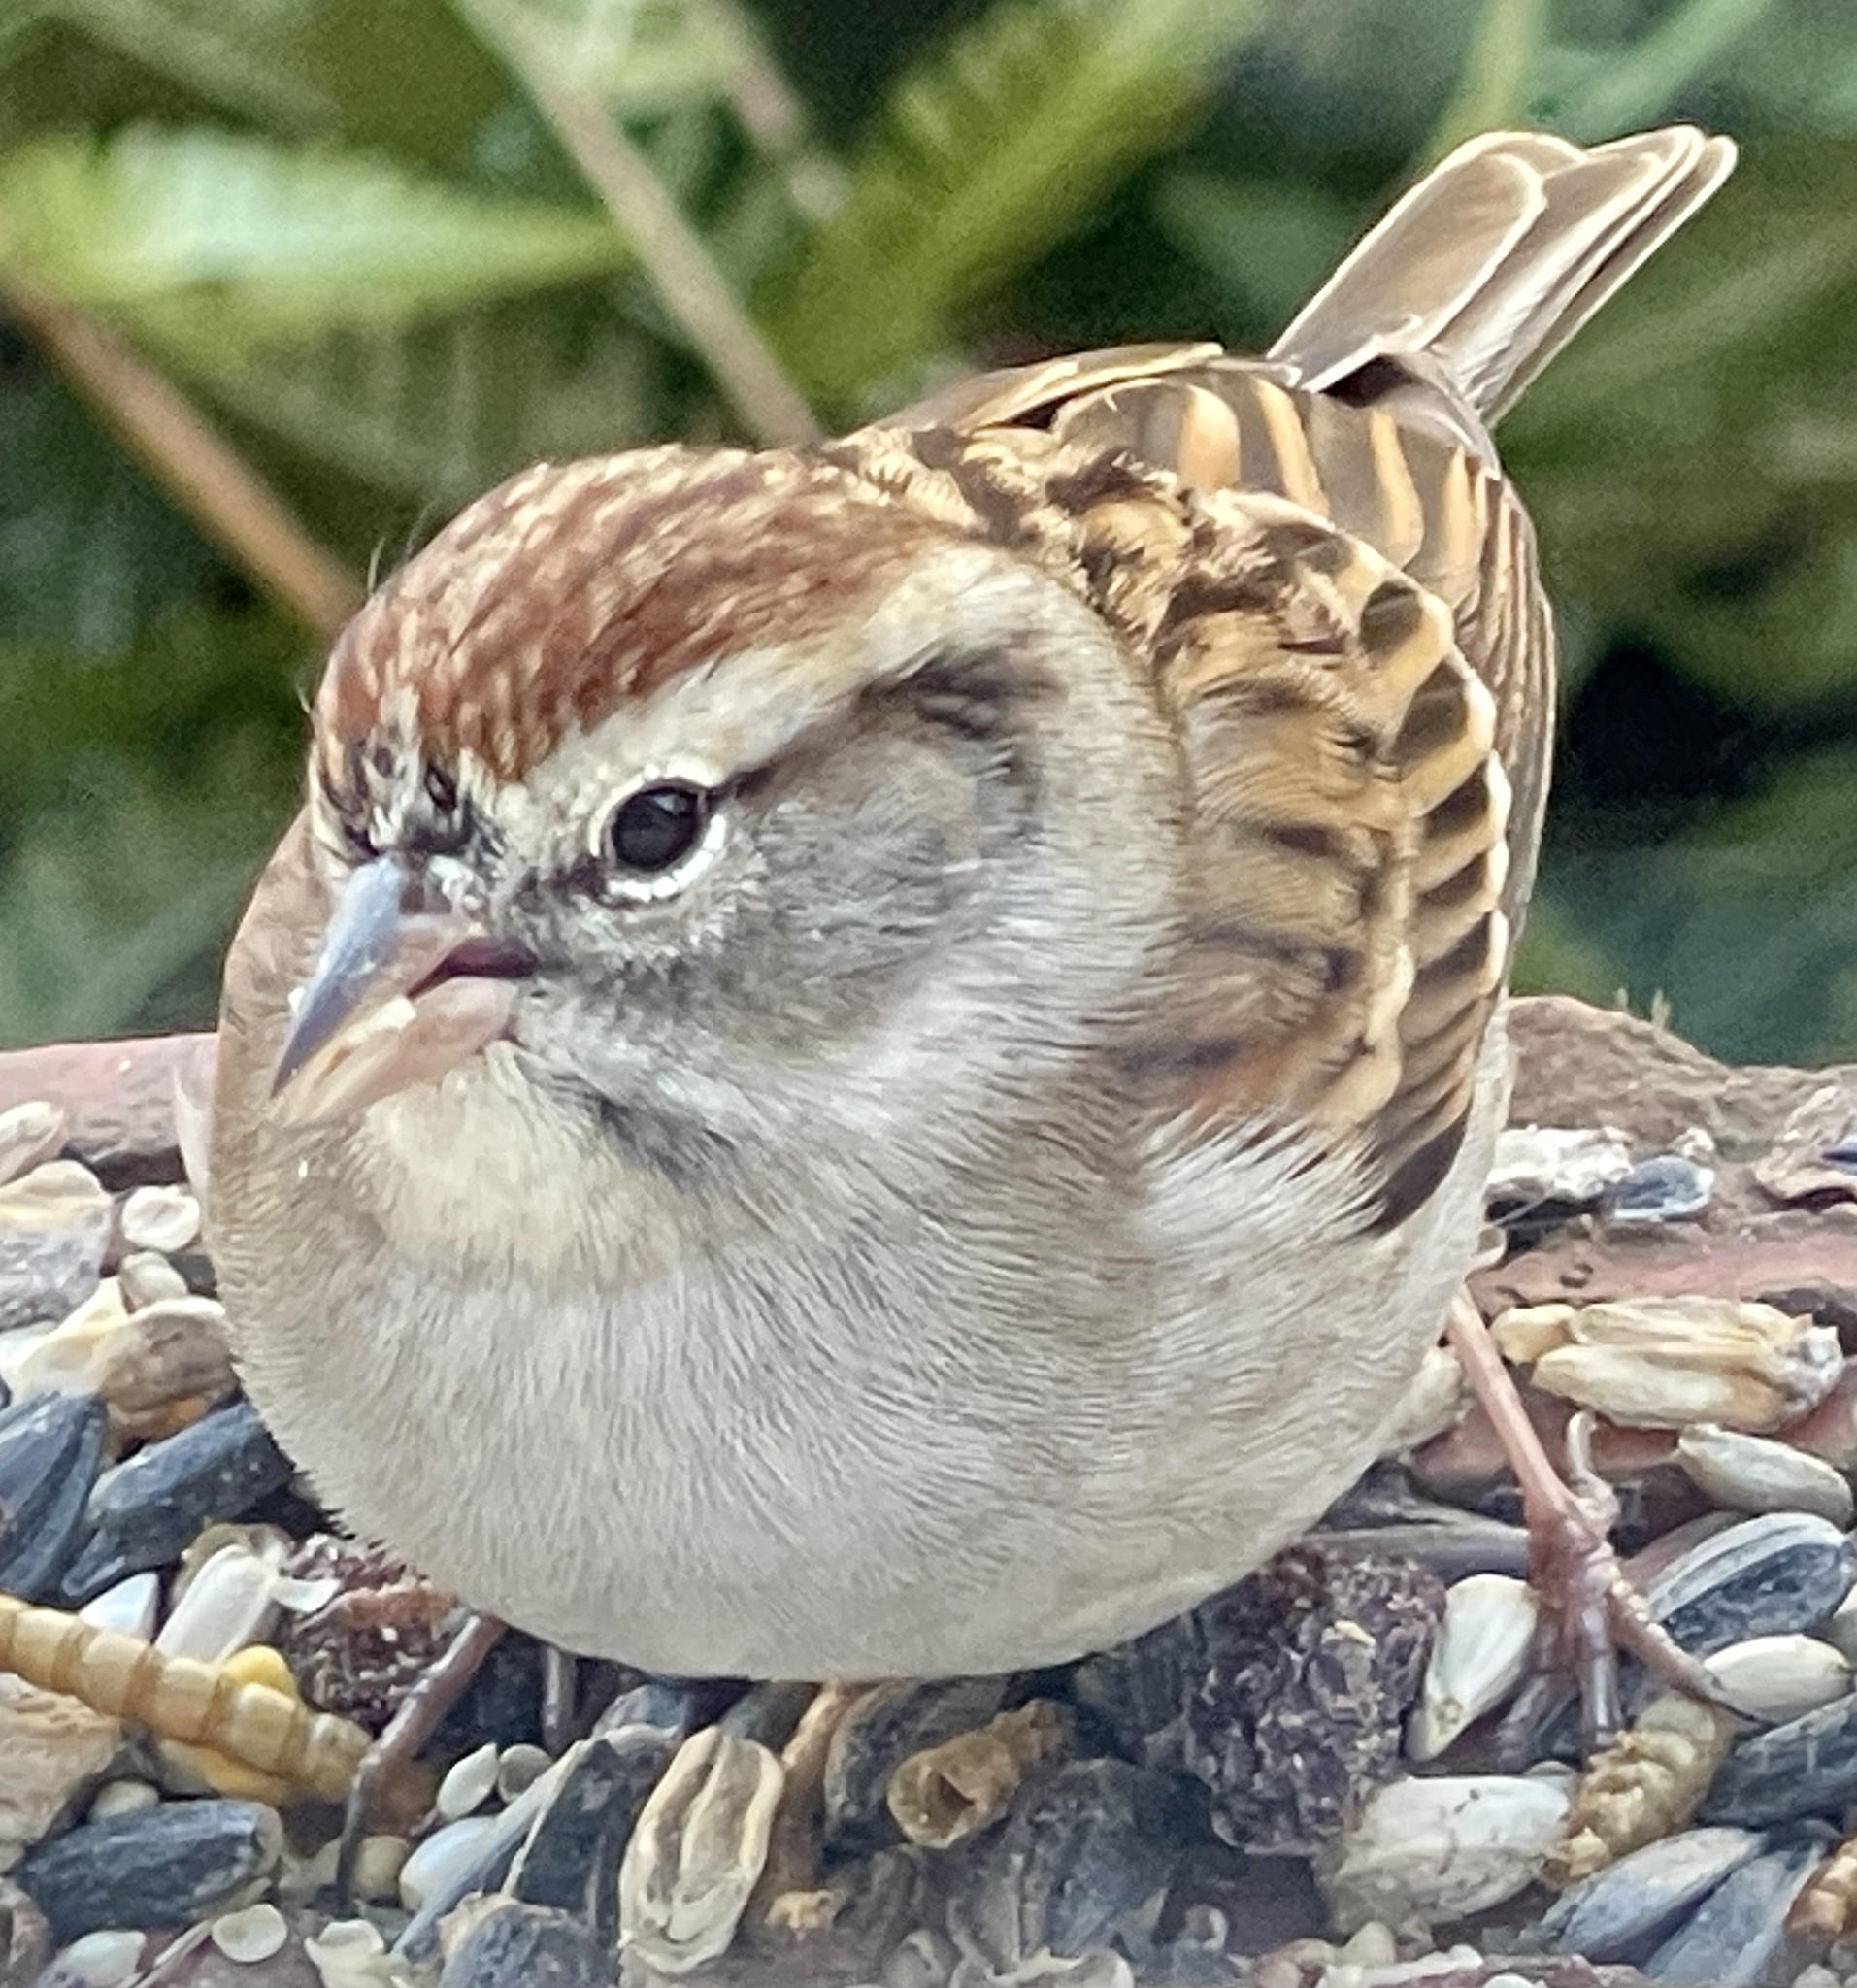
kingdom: Animalia
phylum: Chordata
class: Aves
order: Passeriformes
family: Passerellidae
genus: Spizella
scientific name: Spizella passerina
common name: Chipping sparrow
